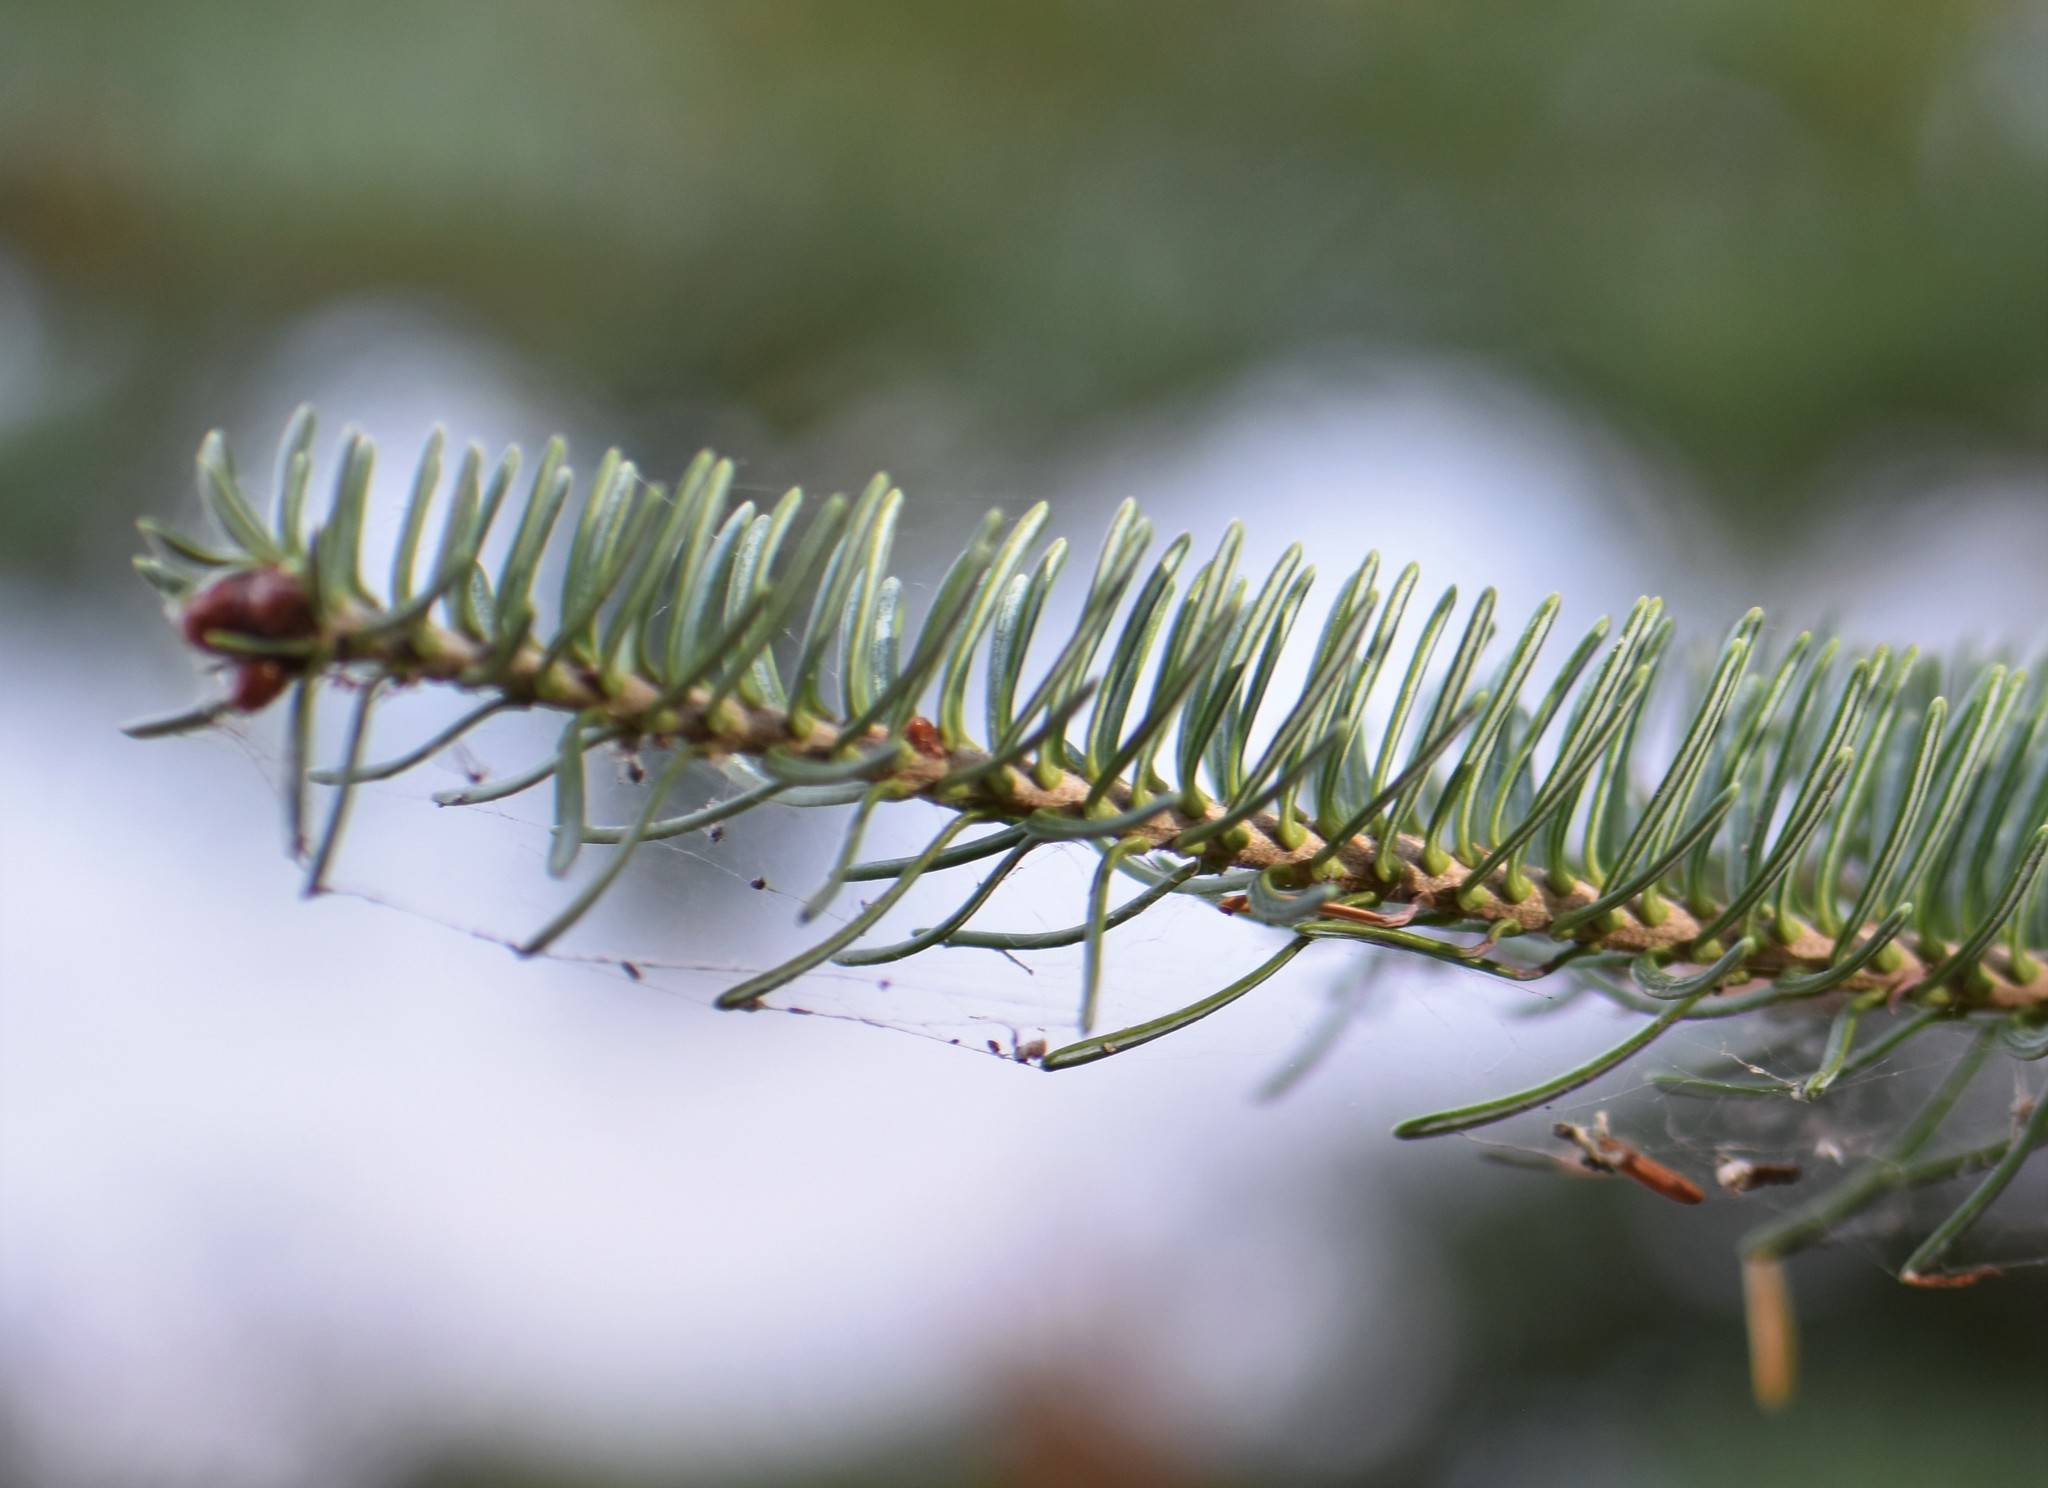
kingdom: Plantae
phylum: Tracheophyta
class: Pinopsida
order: Pinales
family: Pinaceae
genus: Abies
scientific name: Abies balsamea
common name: Balsam fir
